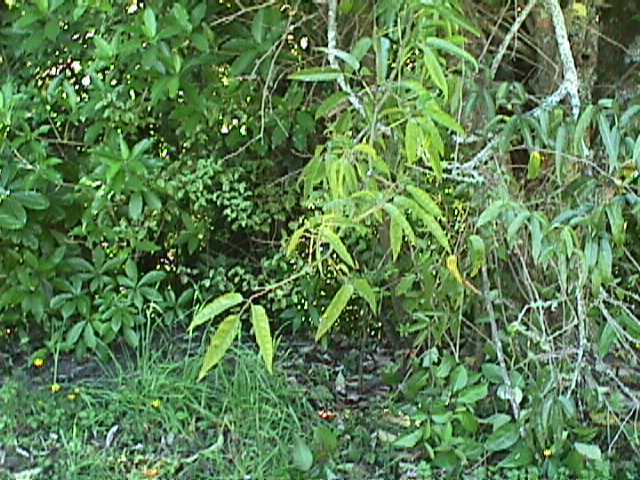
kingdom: Plantae
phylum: Tracheophyta
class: Magnoliopsida
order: Rosales
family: Rosaceae
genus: Rubus
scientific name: Rubus cissoides
